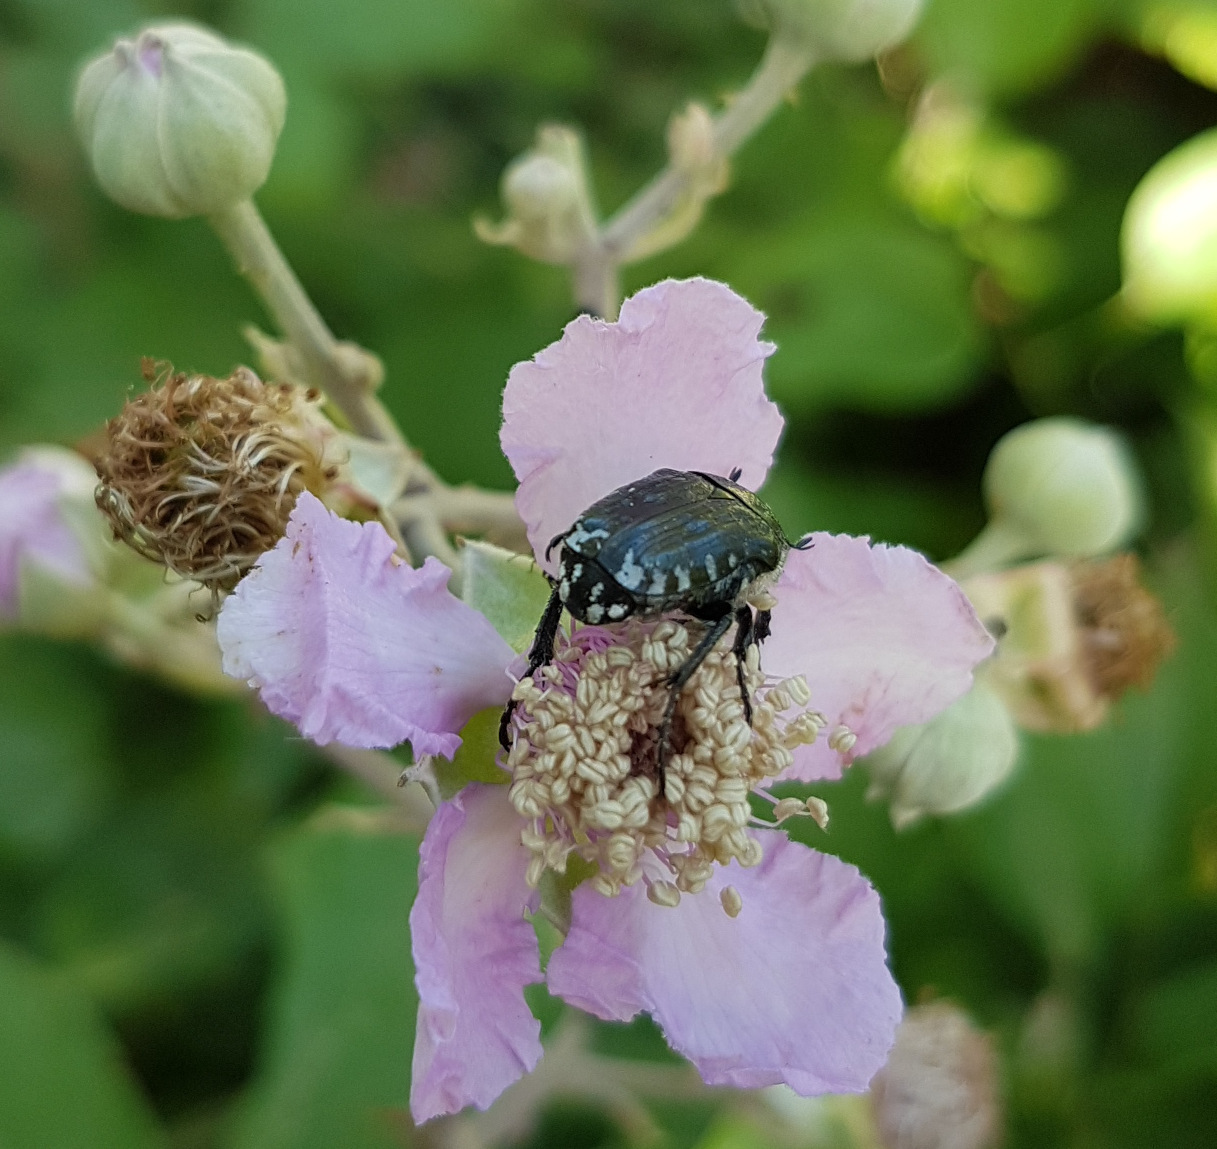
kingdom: Animalia
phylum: Arthropoda
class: Insecta
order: Coleoptera
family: Scarabaeidae
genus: Oxythyrea
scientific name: Oxythyrea funesta
